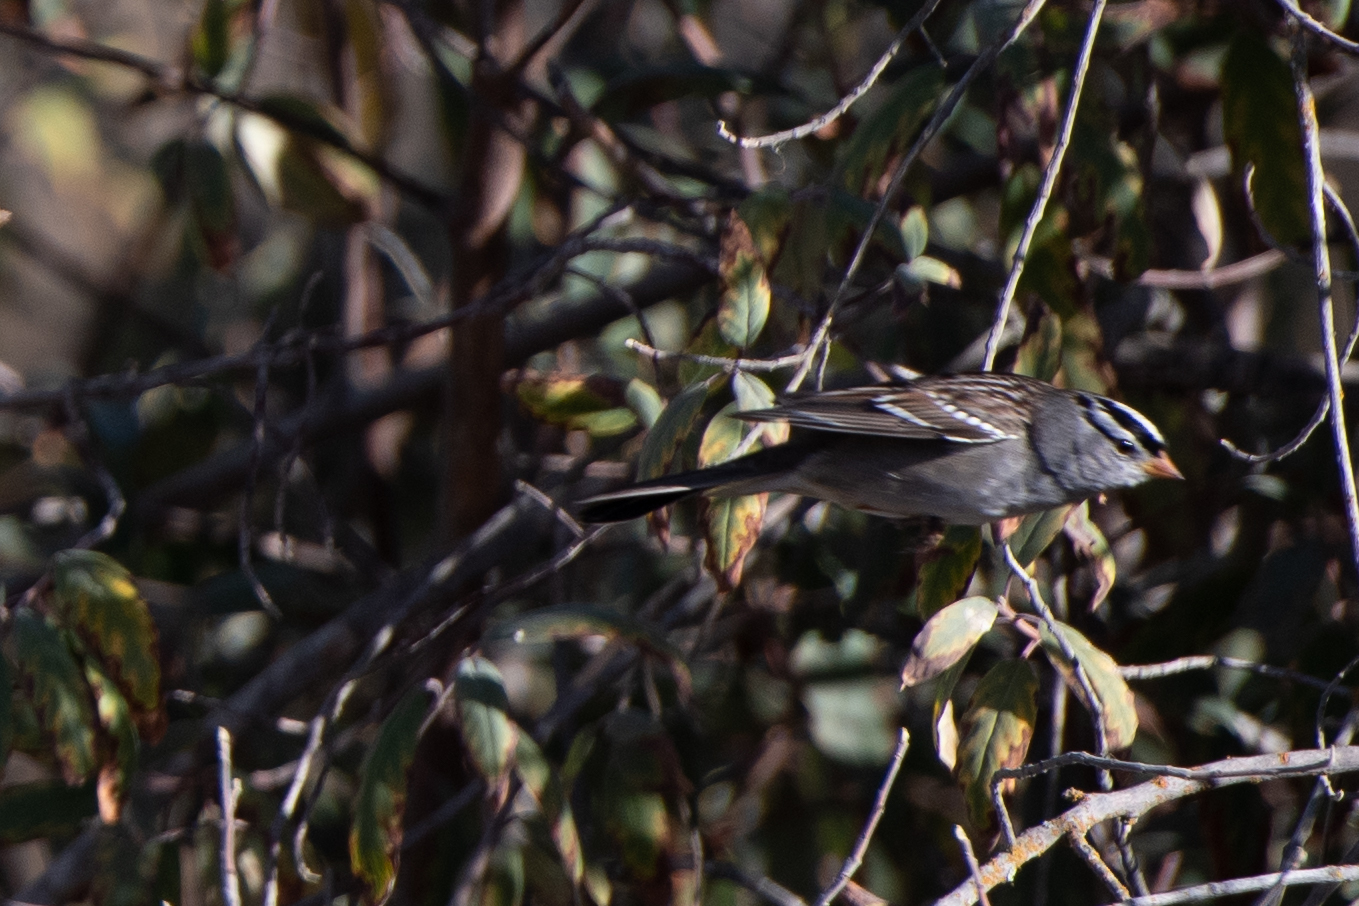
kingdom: Animalia
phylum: Chordata
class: Aves
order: Passeriformes
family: Passerellidae
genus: Zonotrichia
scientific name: Zonotrichia leucophrys
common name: White-crowned sparrow
